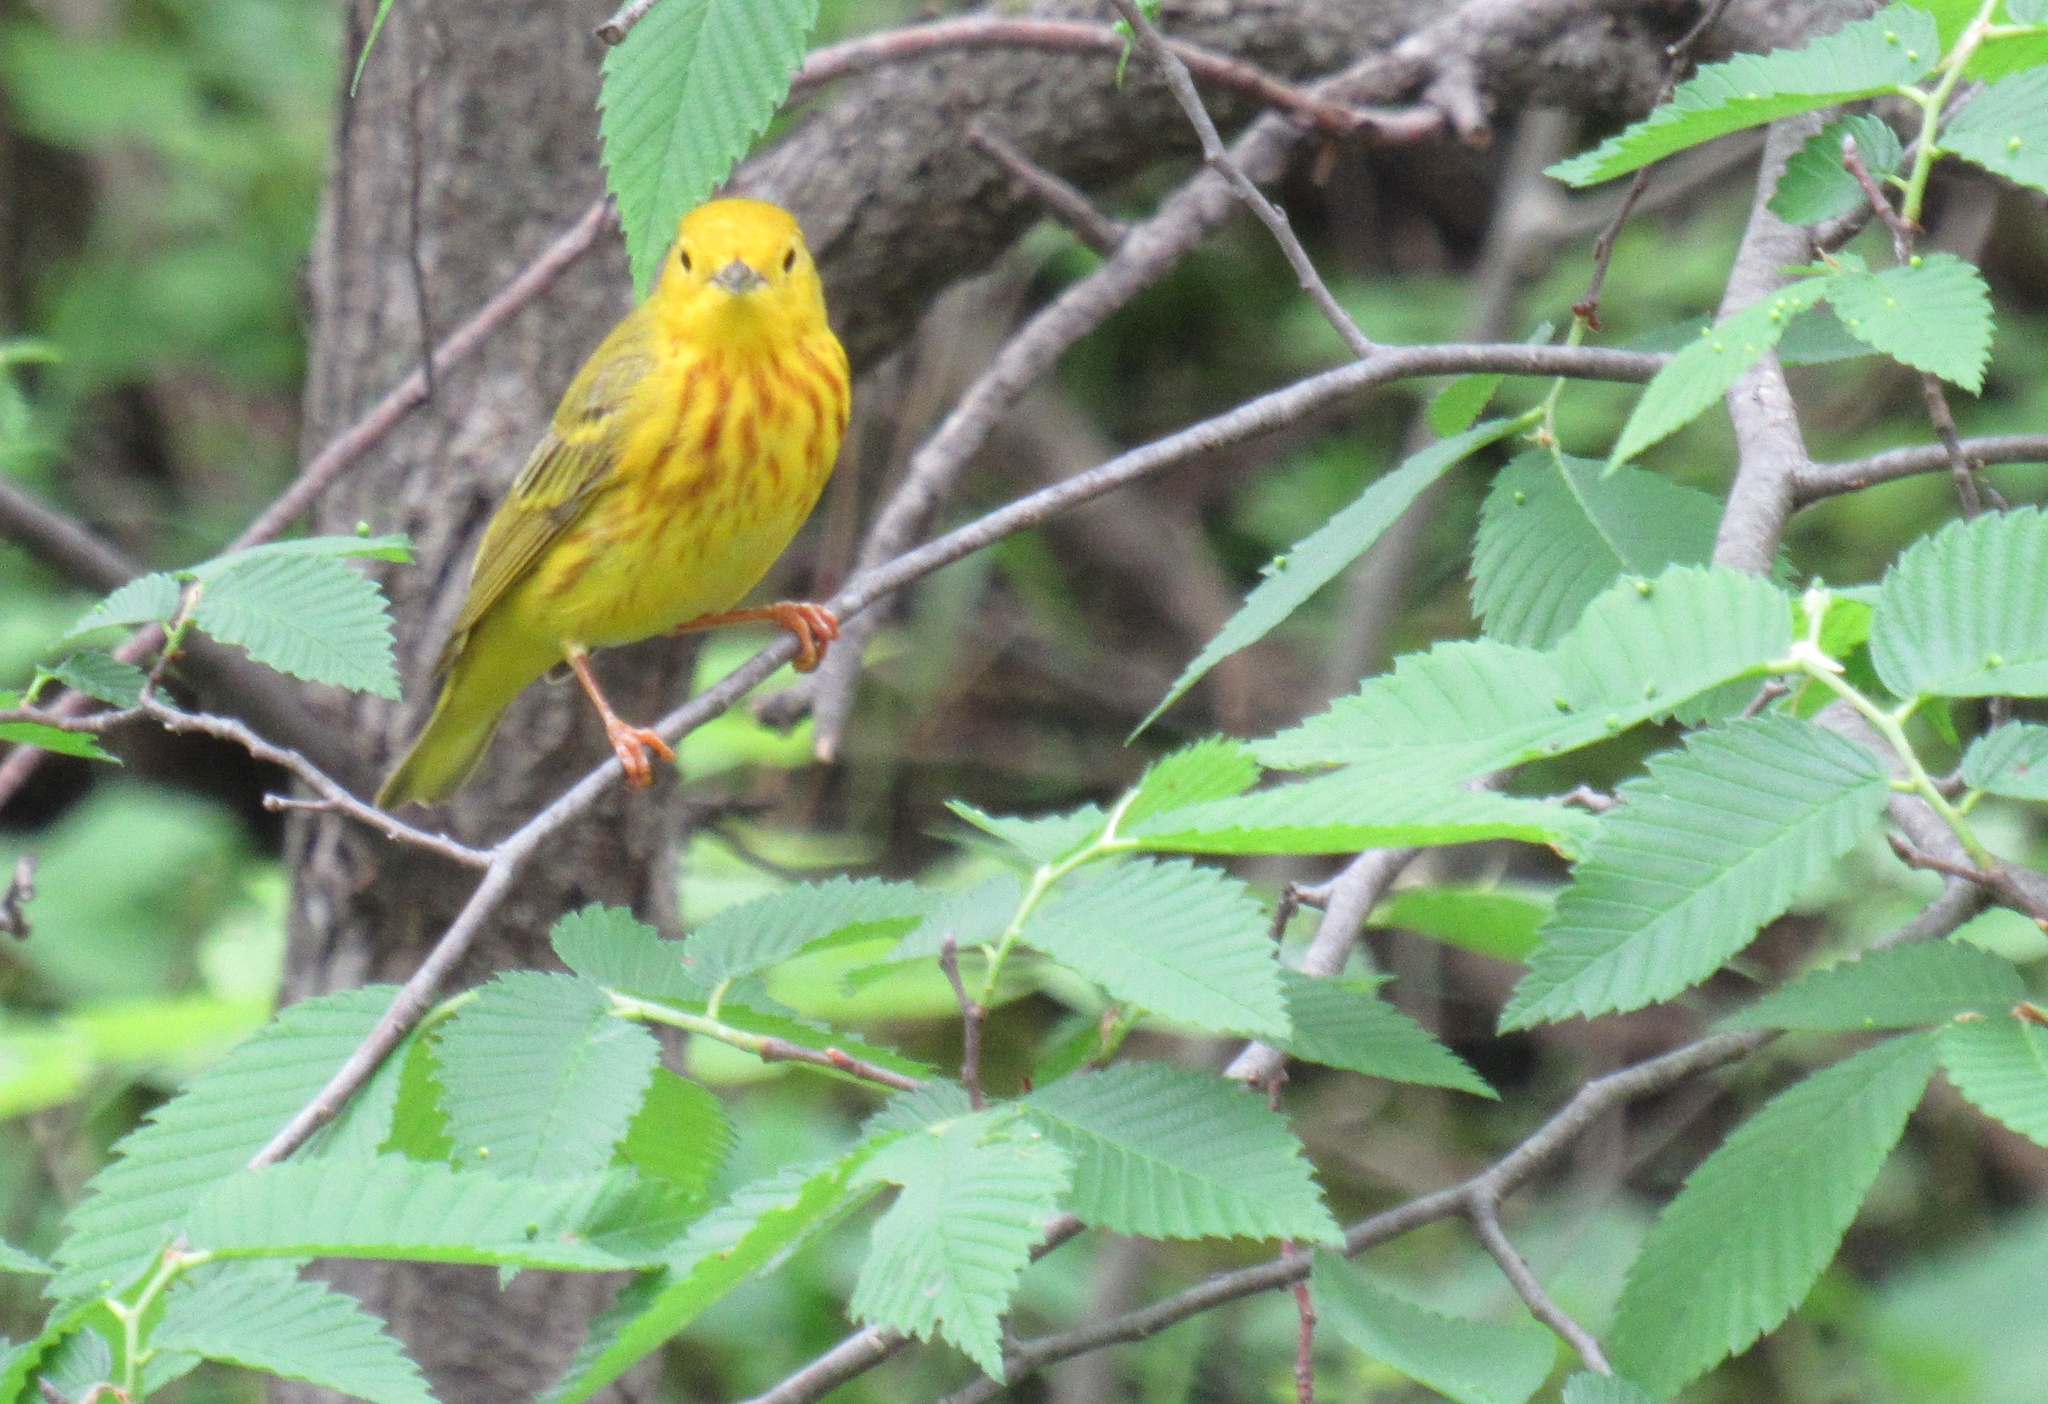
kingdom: Animalia
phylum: Chordata
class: Aves
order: Passeriformes
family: Parulidae
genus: Setophaga
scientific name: Setophaga petechia
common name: Yellow warbler
